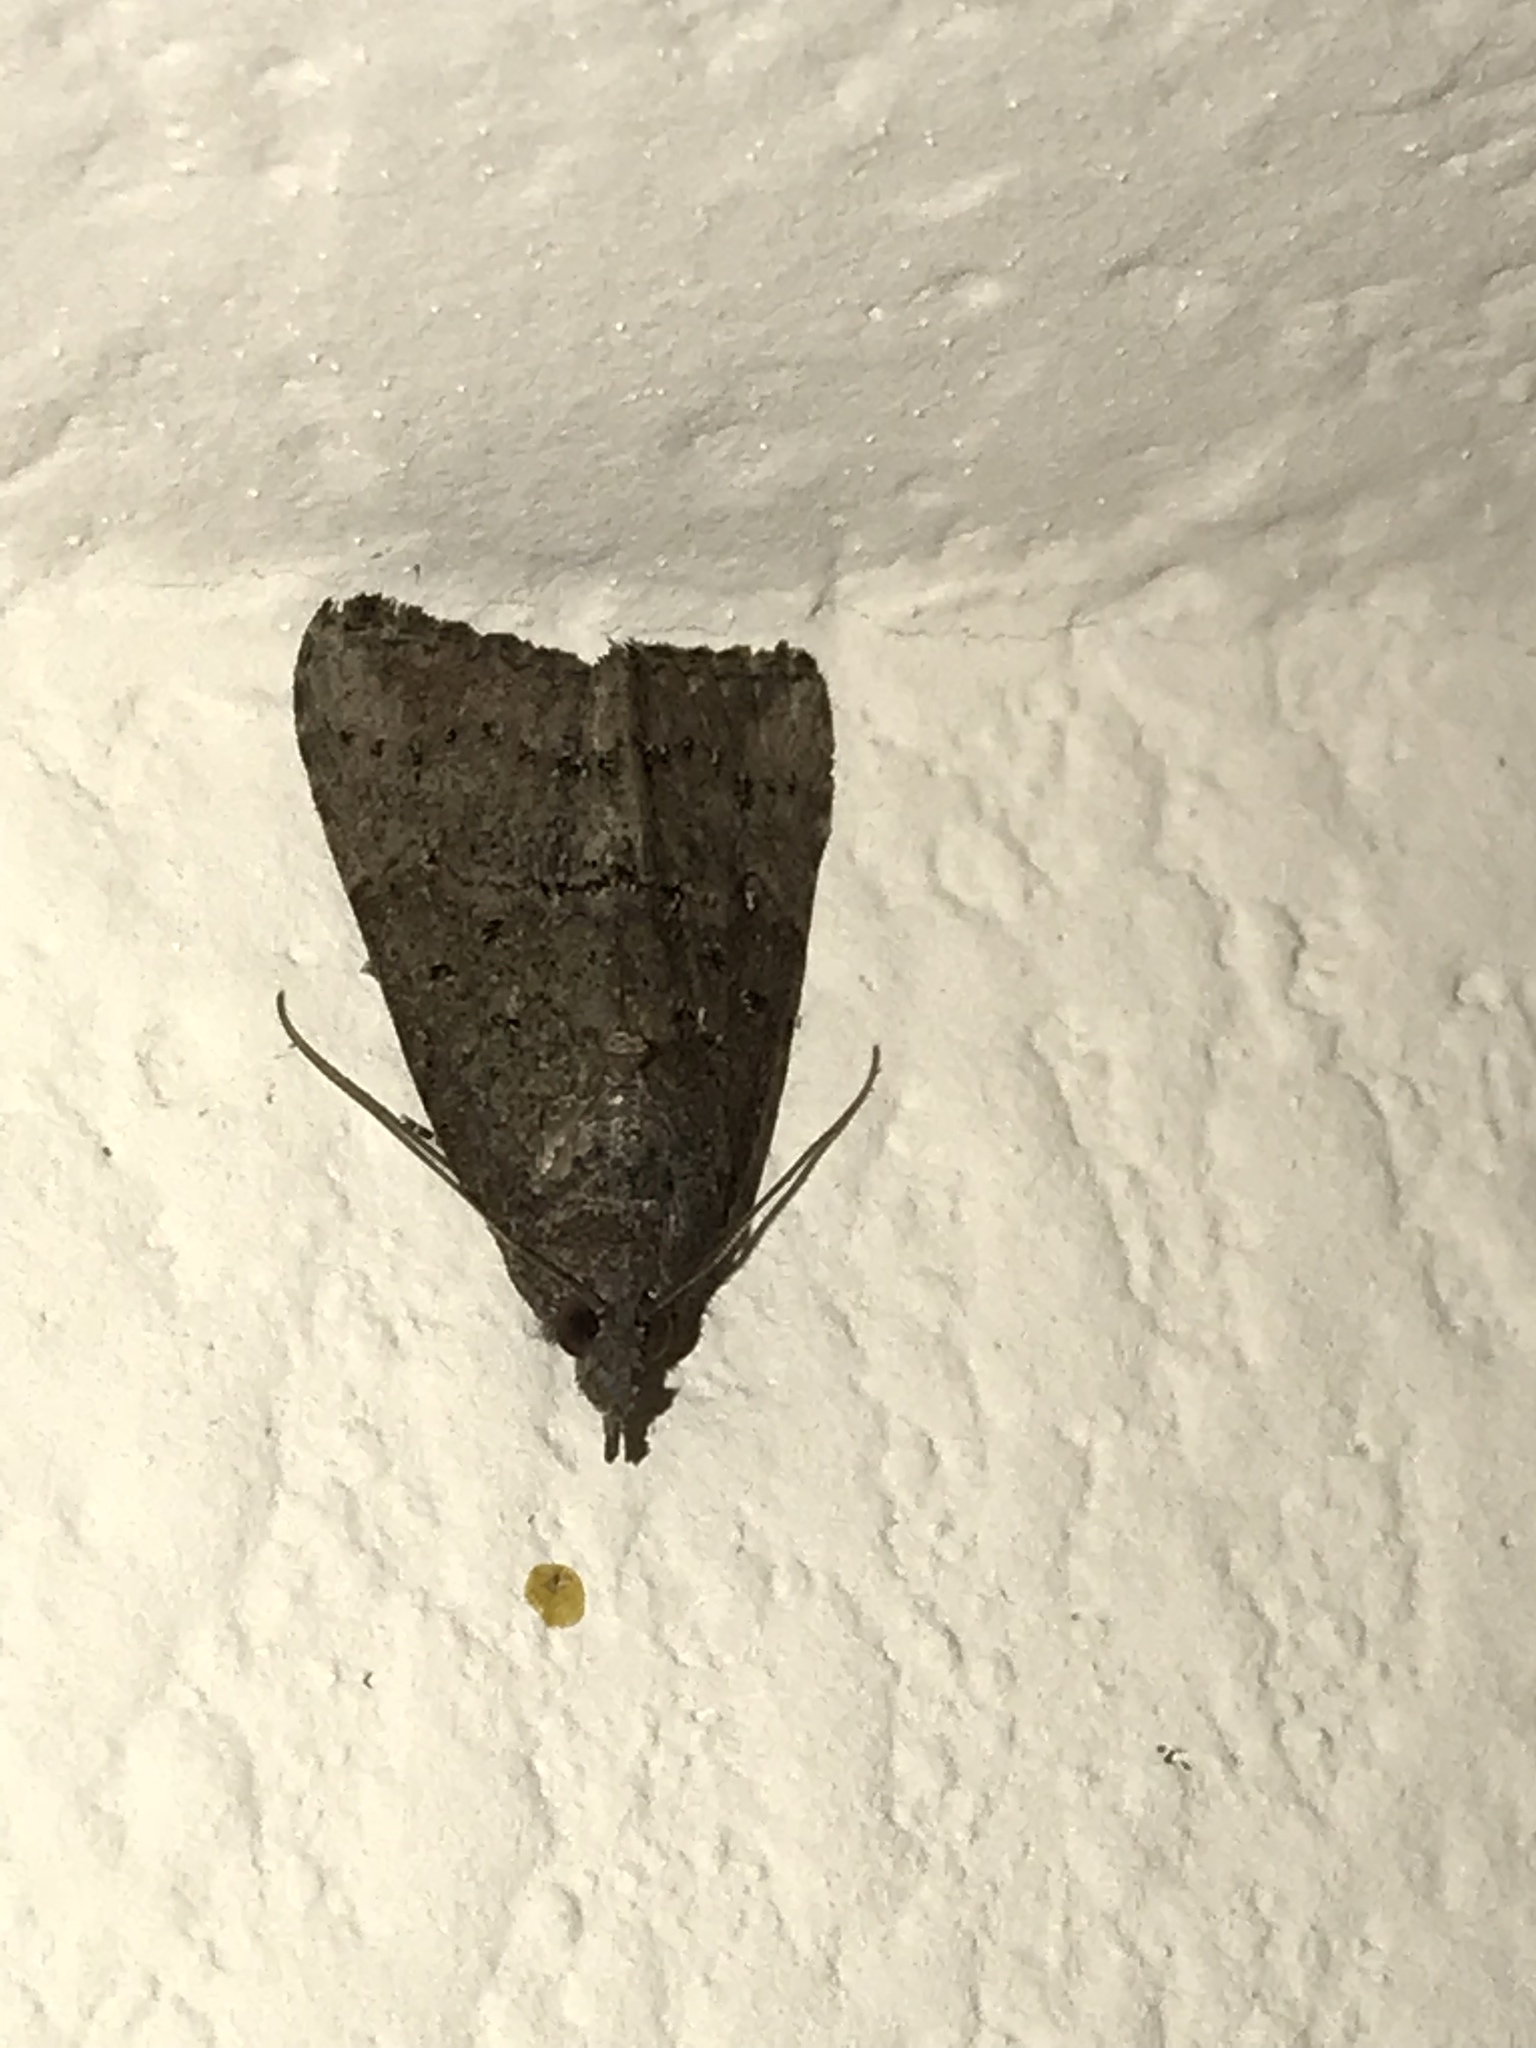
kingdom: Animalia
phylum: Arthropoda
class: Insecta
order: Lepidoptera
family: Erebidae
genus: Hypena
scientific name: Hypena scabra
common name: Green cloverworm
